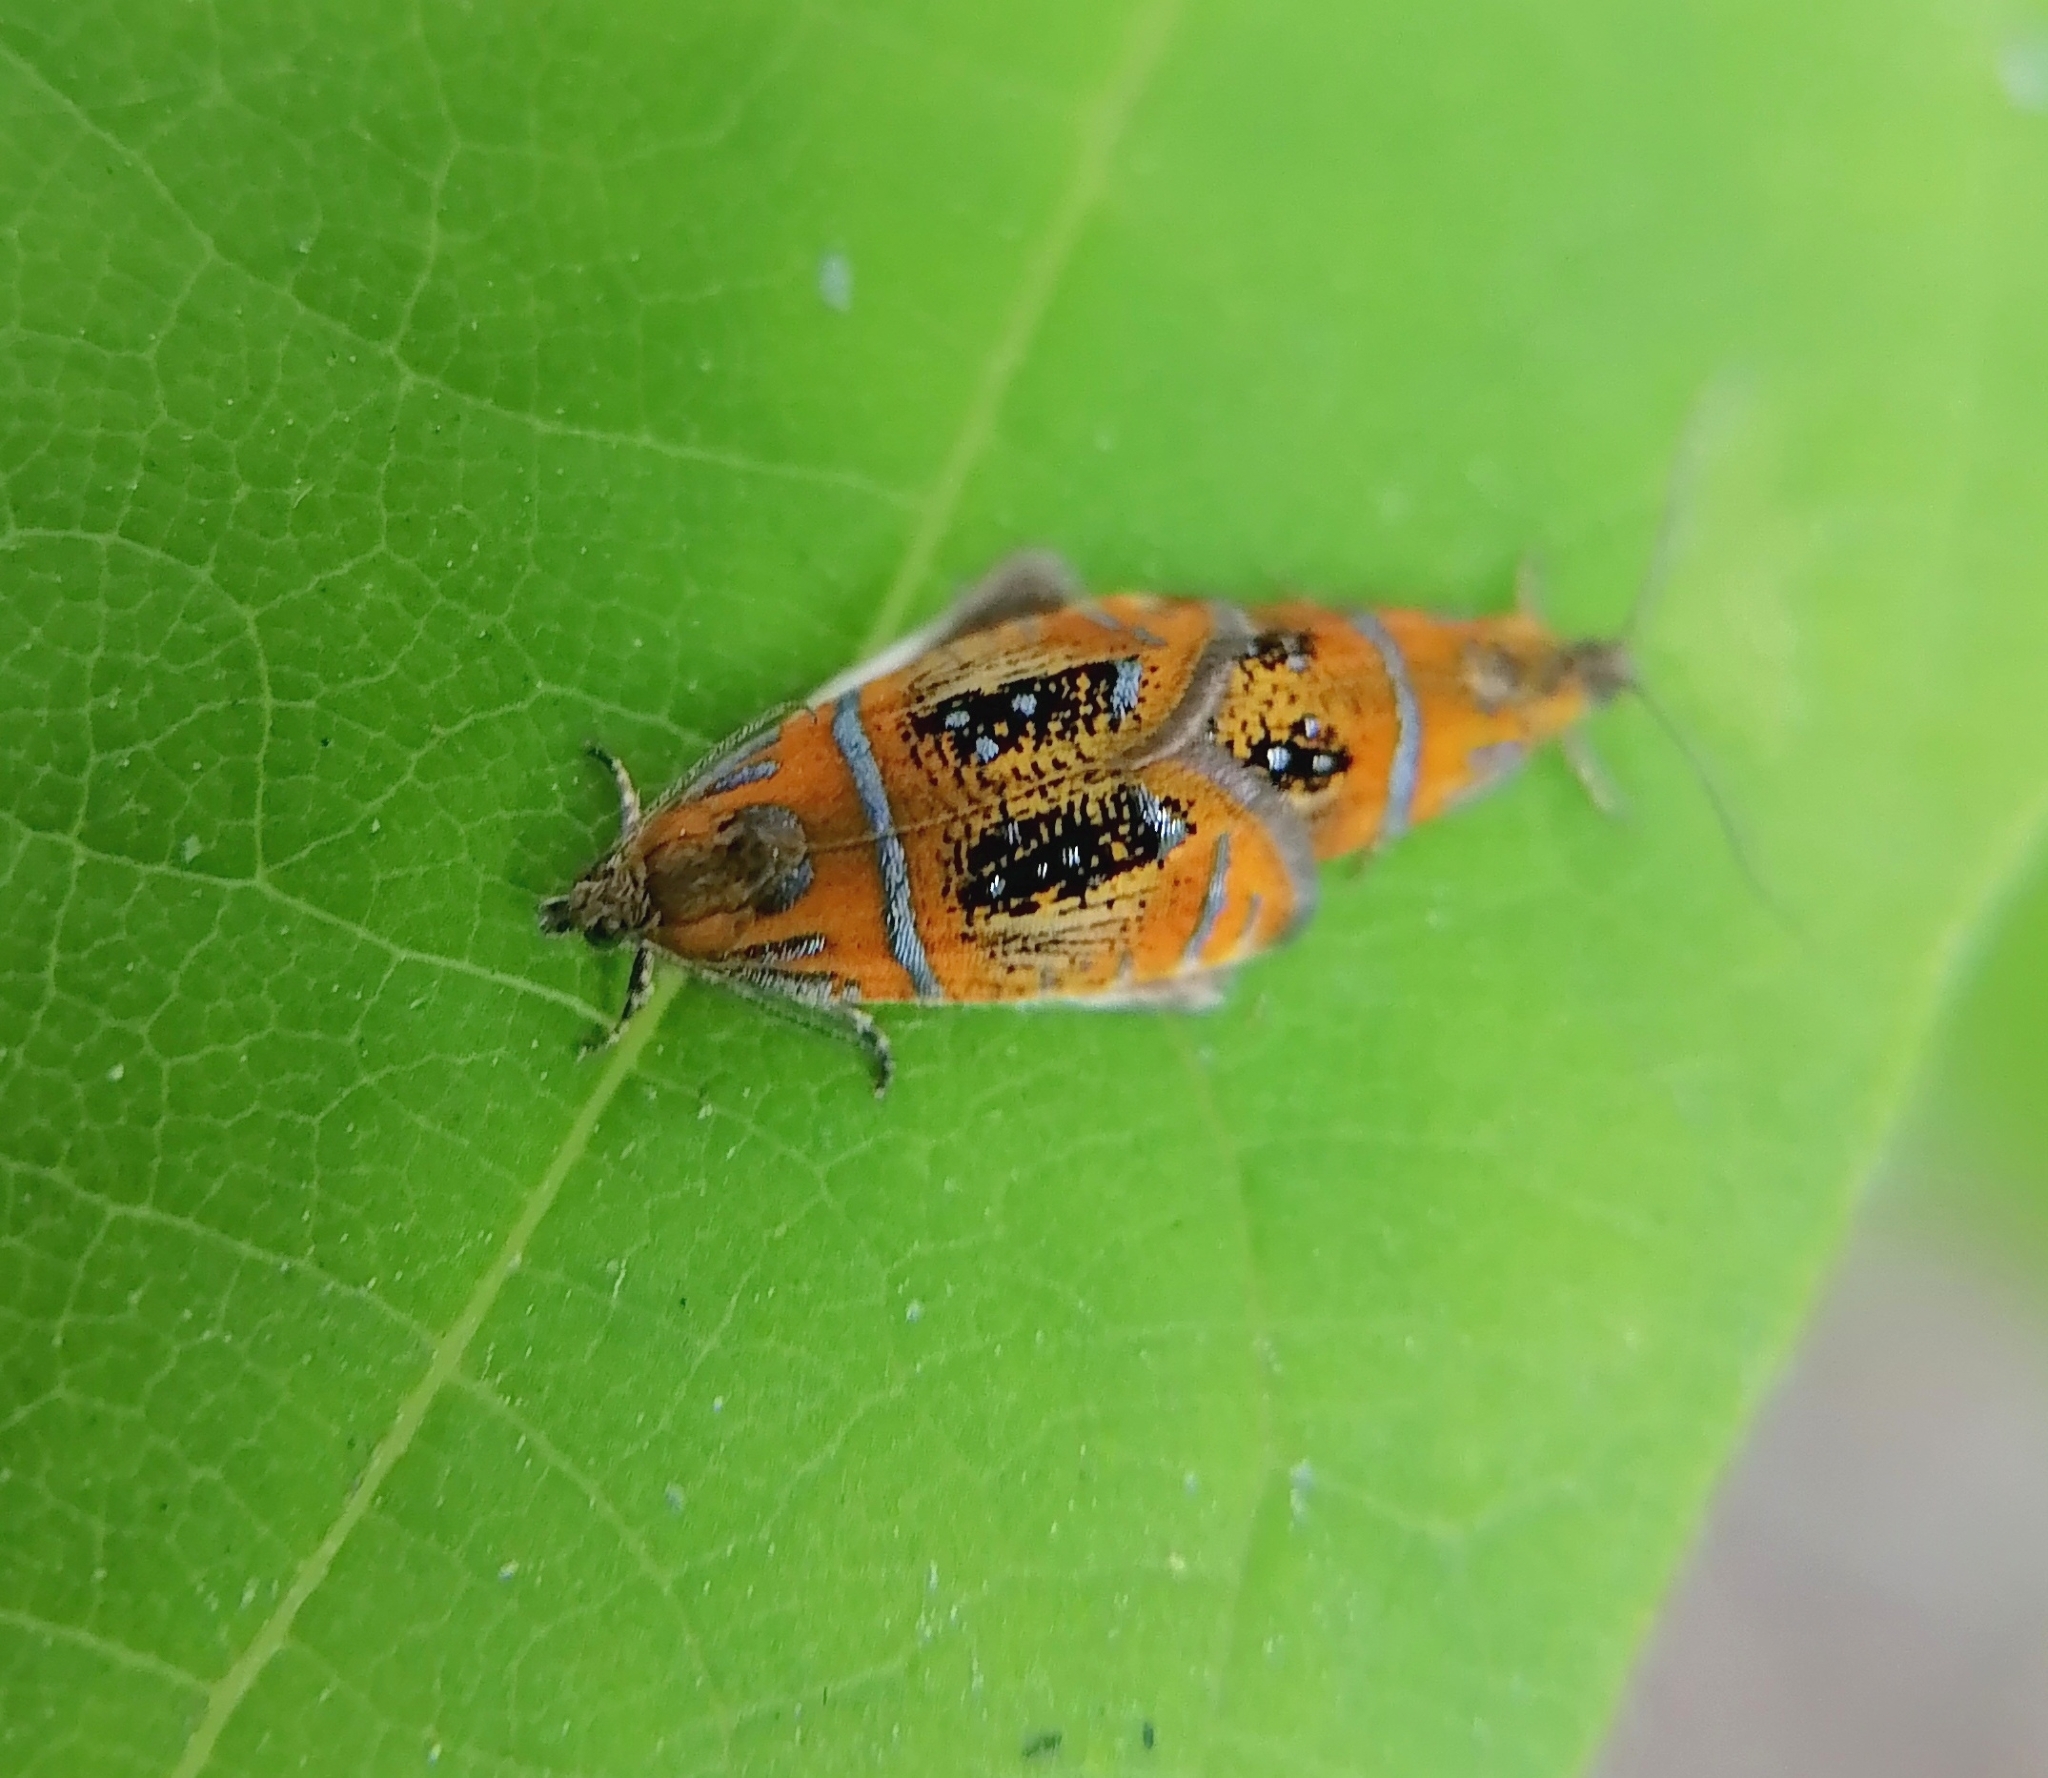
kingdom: Animalia
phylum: Arthropoda
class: Insecta
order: Lepidoptera
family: Tortricidae
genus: Olethreutes
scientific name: Olethreutes arcuella
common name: Arched marble
